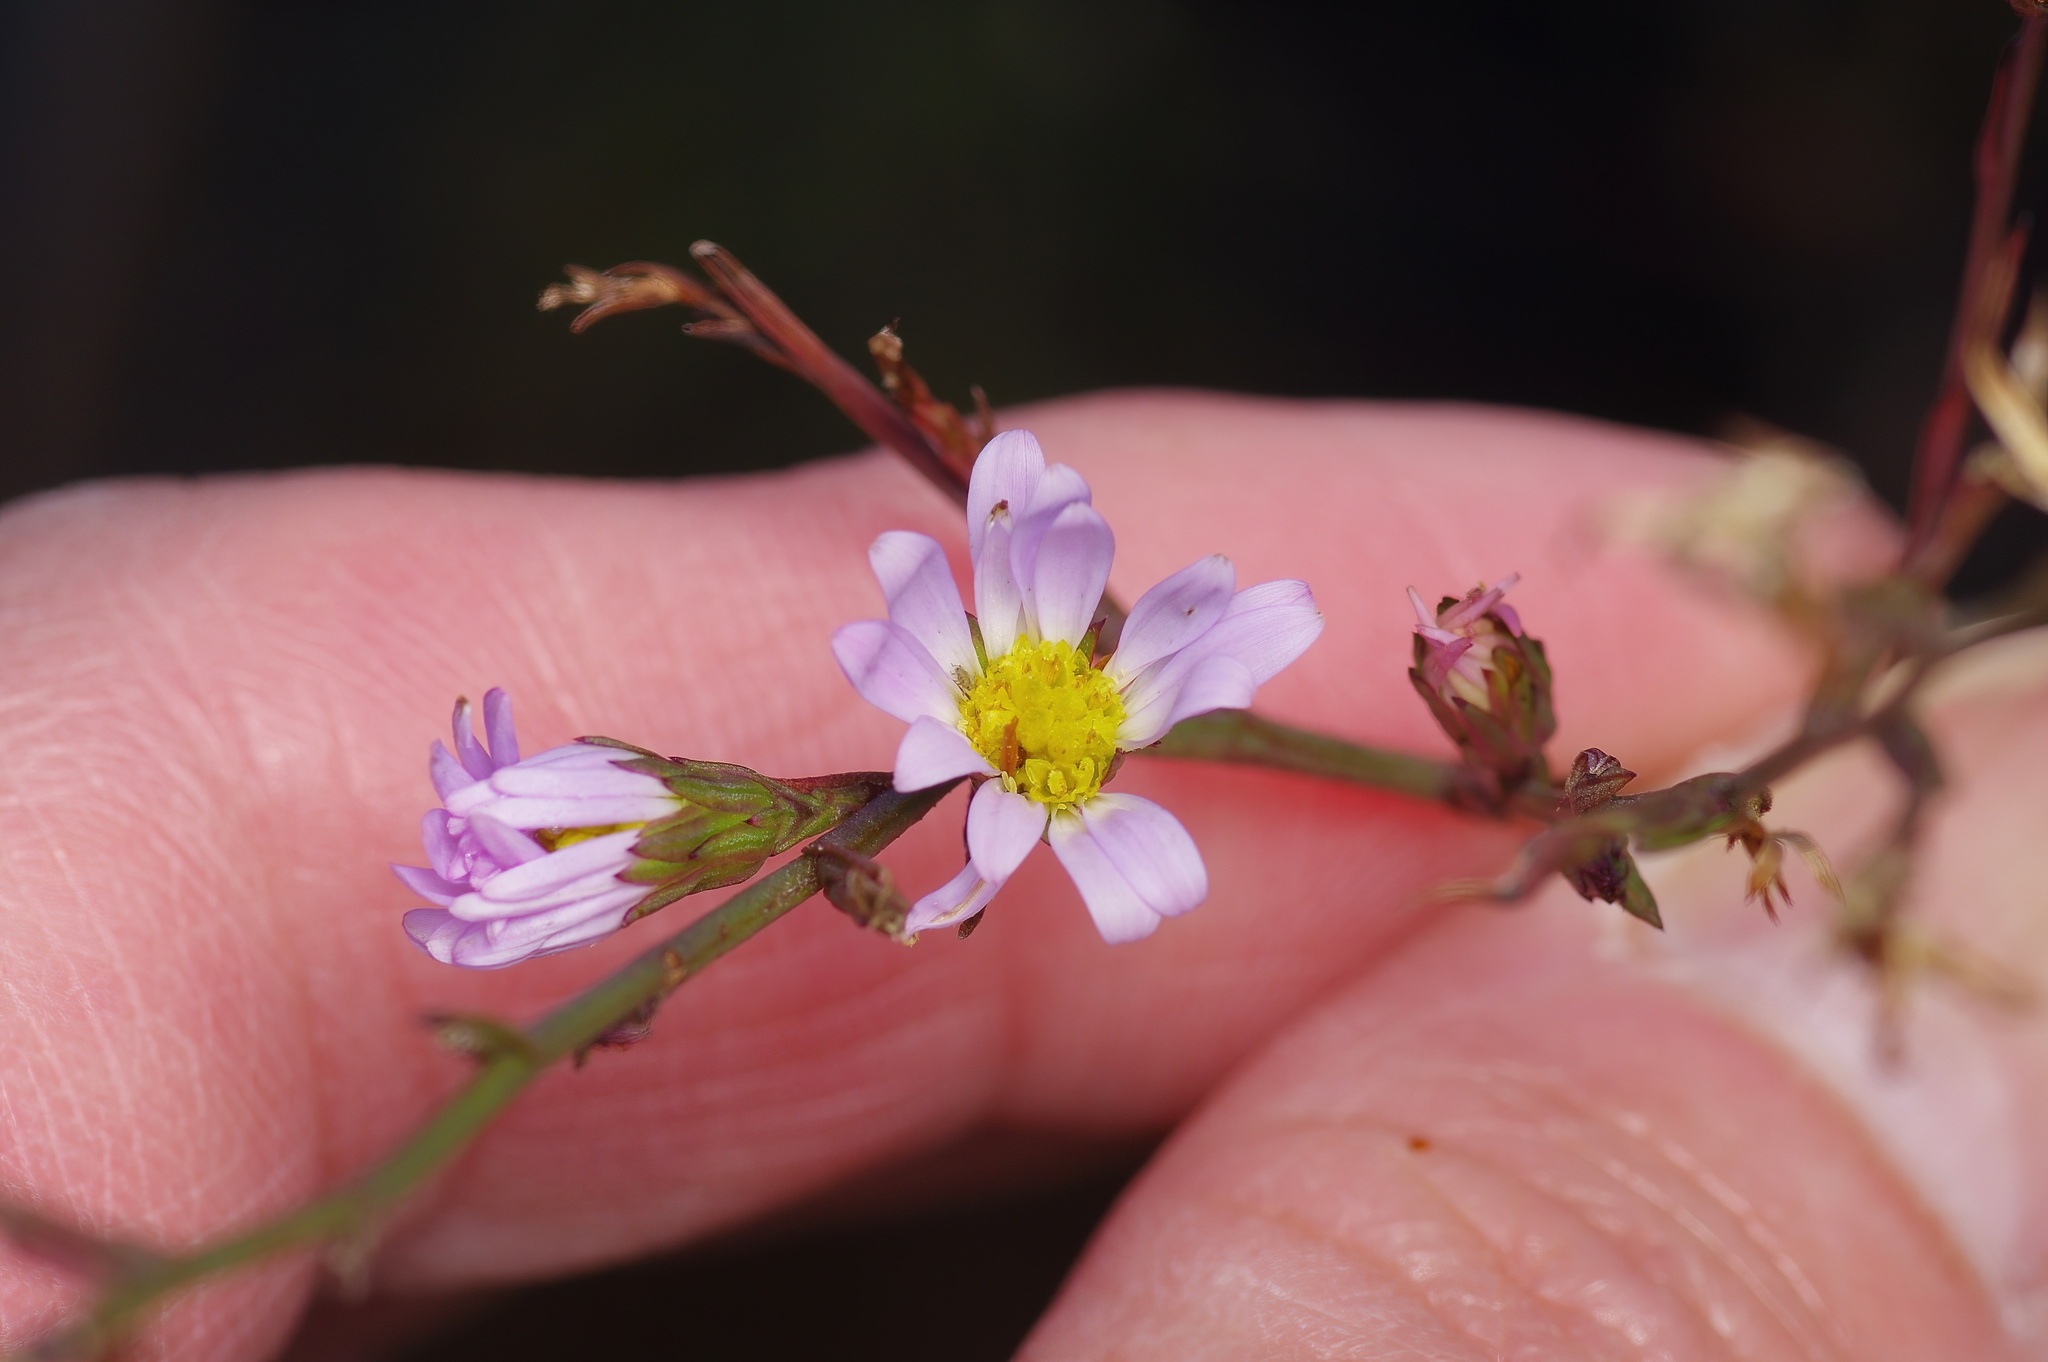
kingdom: Plantae
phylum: Tracheophyta
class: Magnoliopsida
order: Asterales
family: Asteraceae
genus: Symphyotrichum
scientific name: Symphyotrichum divaricatum
